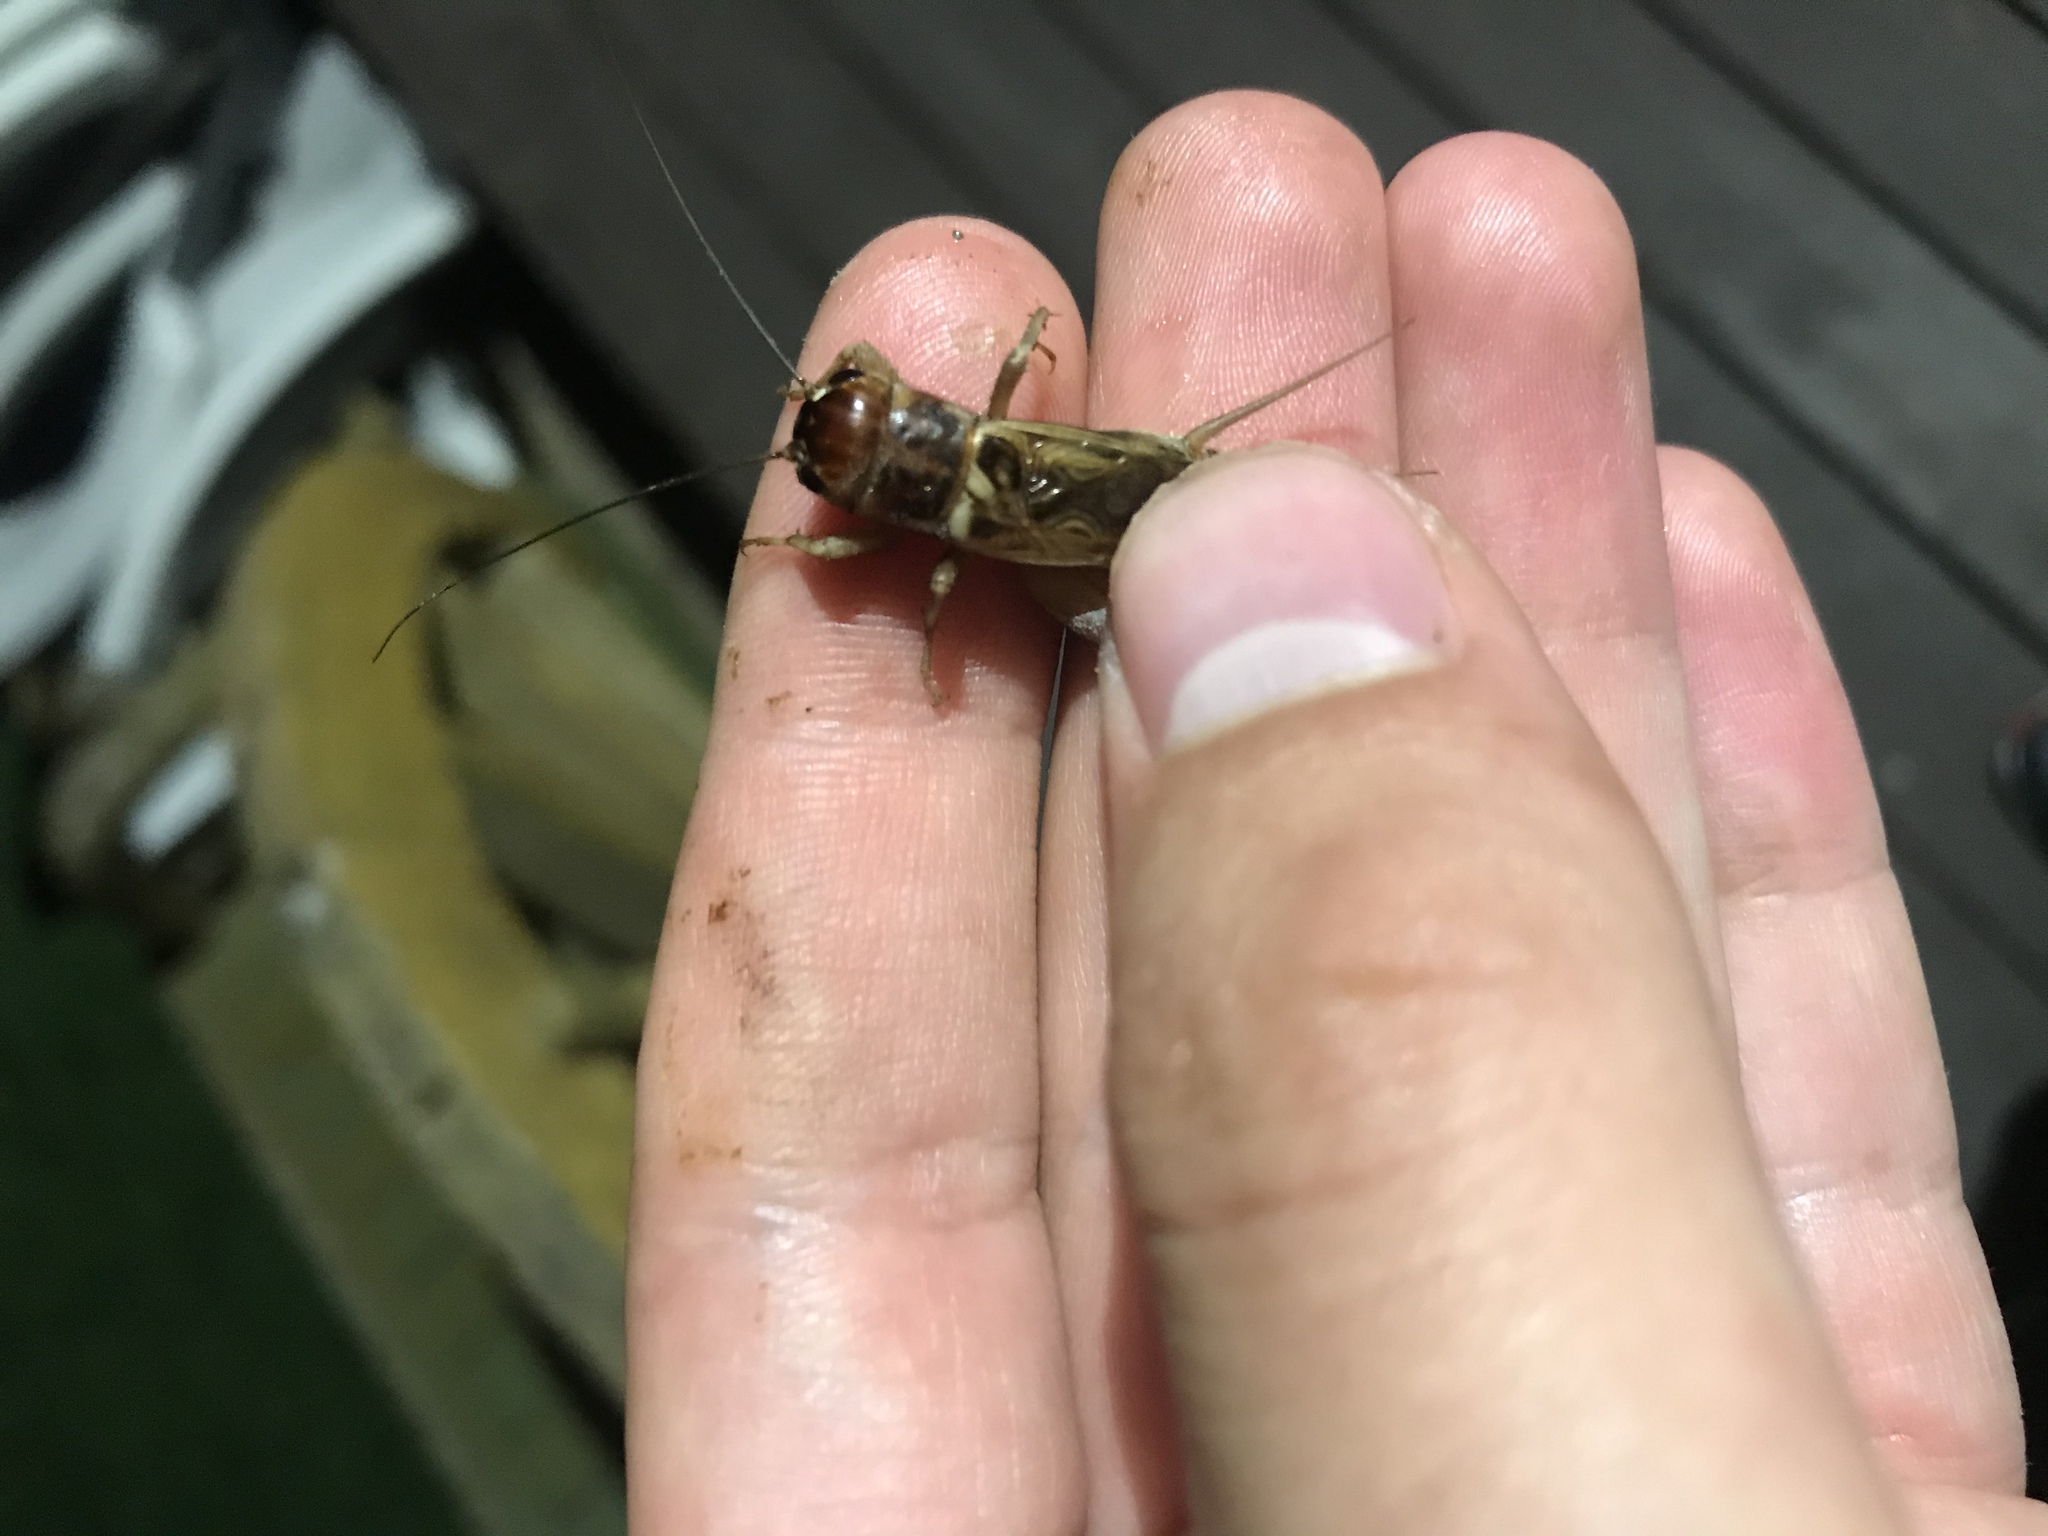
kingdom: Animalia
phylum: Arthropoda
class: Insecta
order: Orthoptera
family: Gryllidae
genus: Gryllus
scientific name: Gryllus lineaticeps
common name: Variable field cricket
